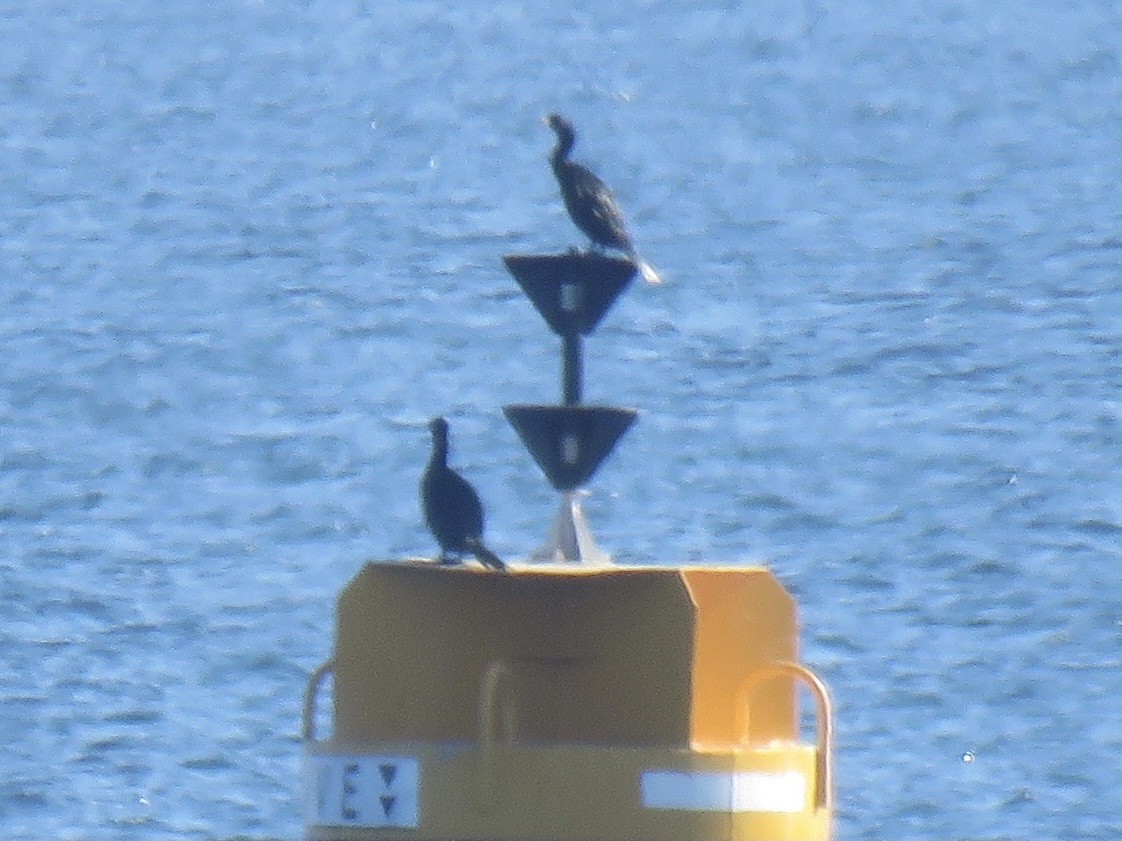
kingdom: Animalia
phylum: Chordata
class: Aves
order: Suliformes
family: Phalacrocoracidae
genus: Phalacrocorax
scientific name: Phalacrocorax pelagicus
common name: Pelagic cormorant
